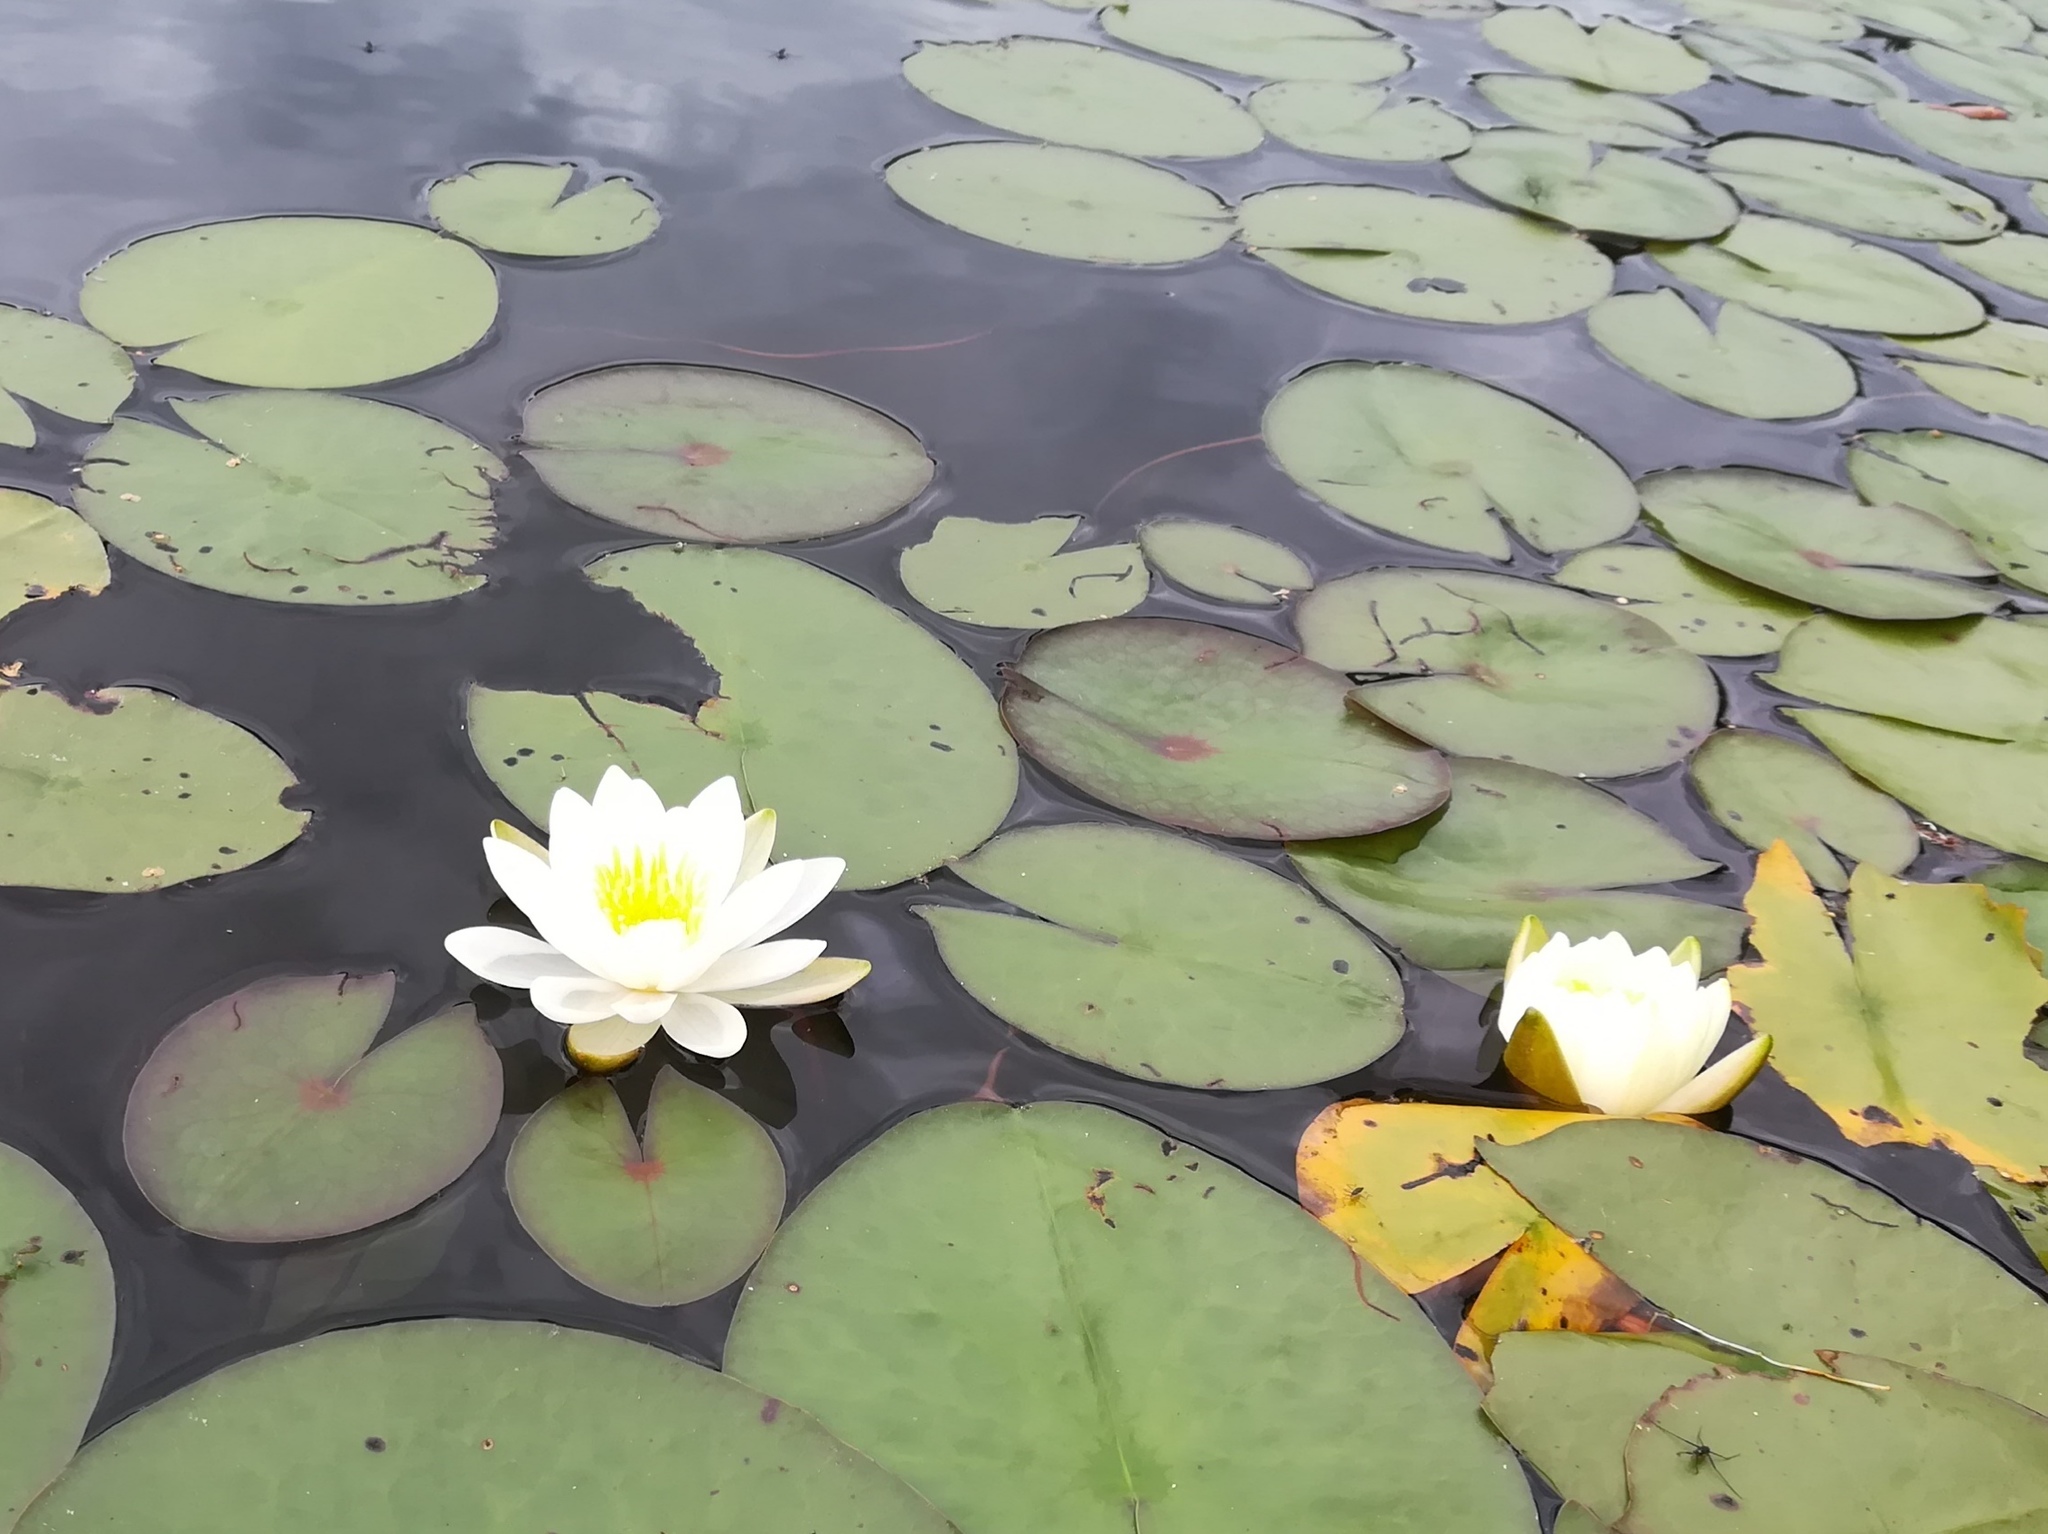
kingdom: Plantae
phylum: Tracheophyta
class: Magnoliopsida
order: Nymphaeales
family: Nymphaeaceae
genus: Nymphaea
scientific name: Nymphaea odorata
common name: Fragrant water-lily
